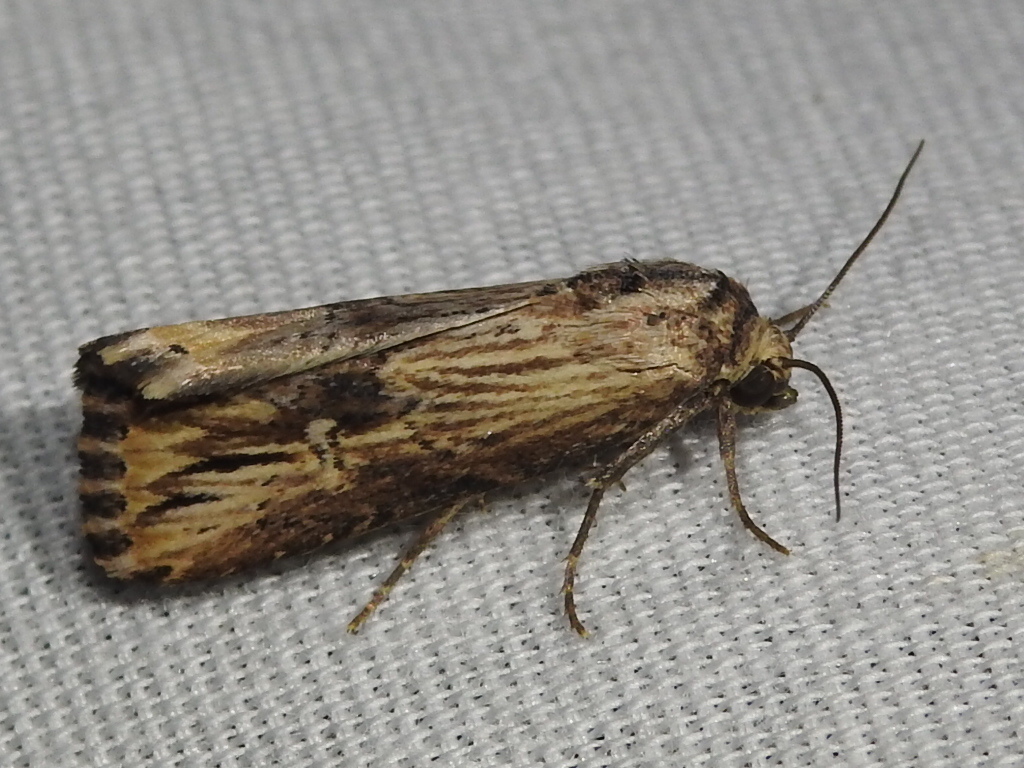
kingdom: Animalia
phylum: Arthropoda
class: Insecta
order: Lepidoptera
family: Noctuidae
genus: Crambodes
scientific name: Crambodes talidiformis
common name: Verbena moth
